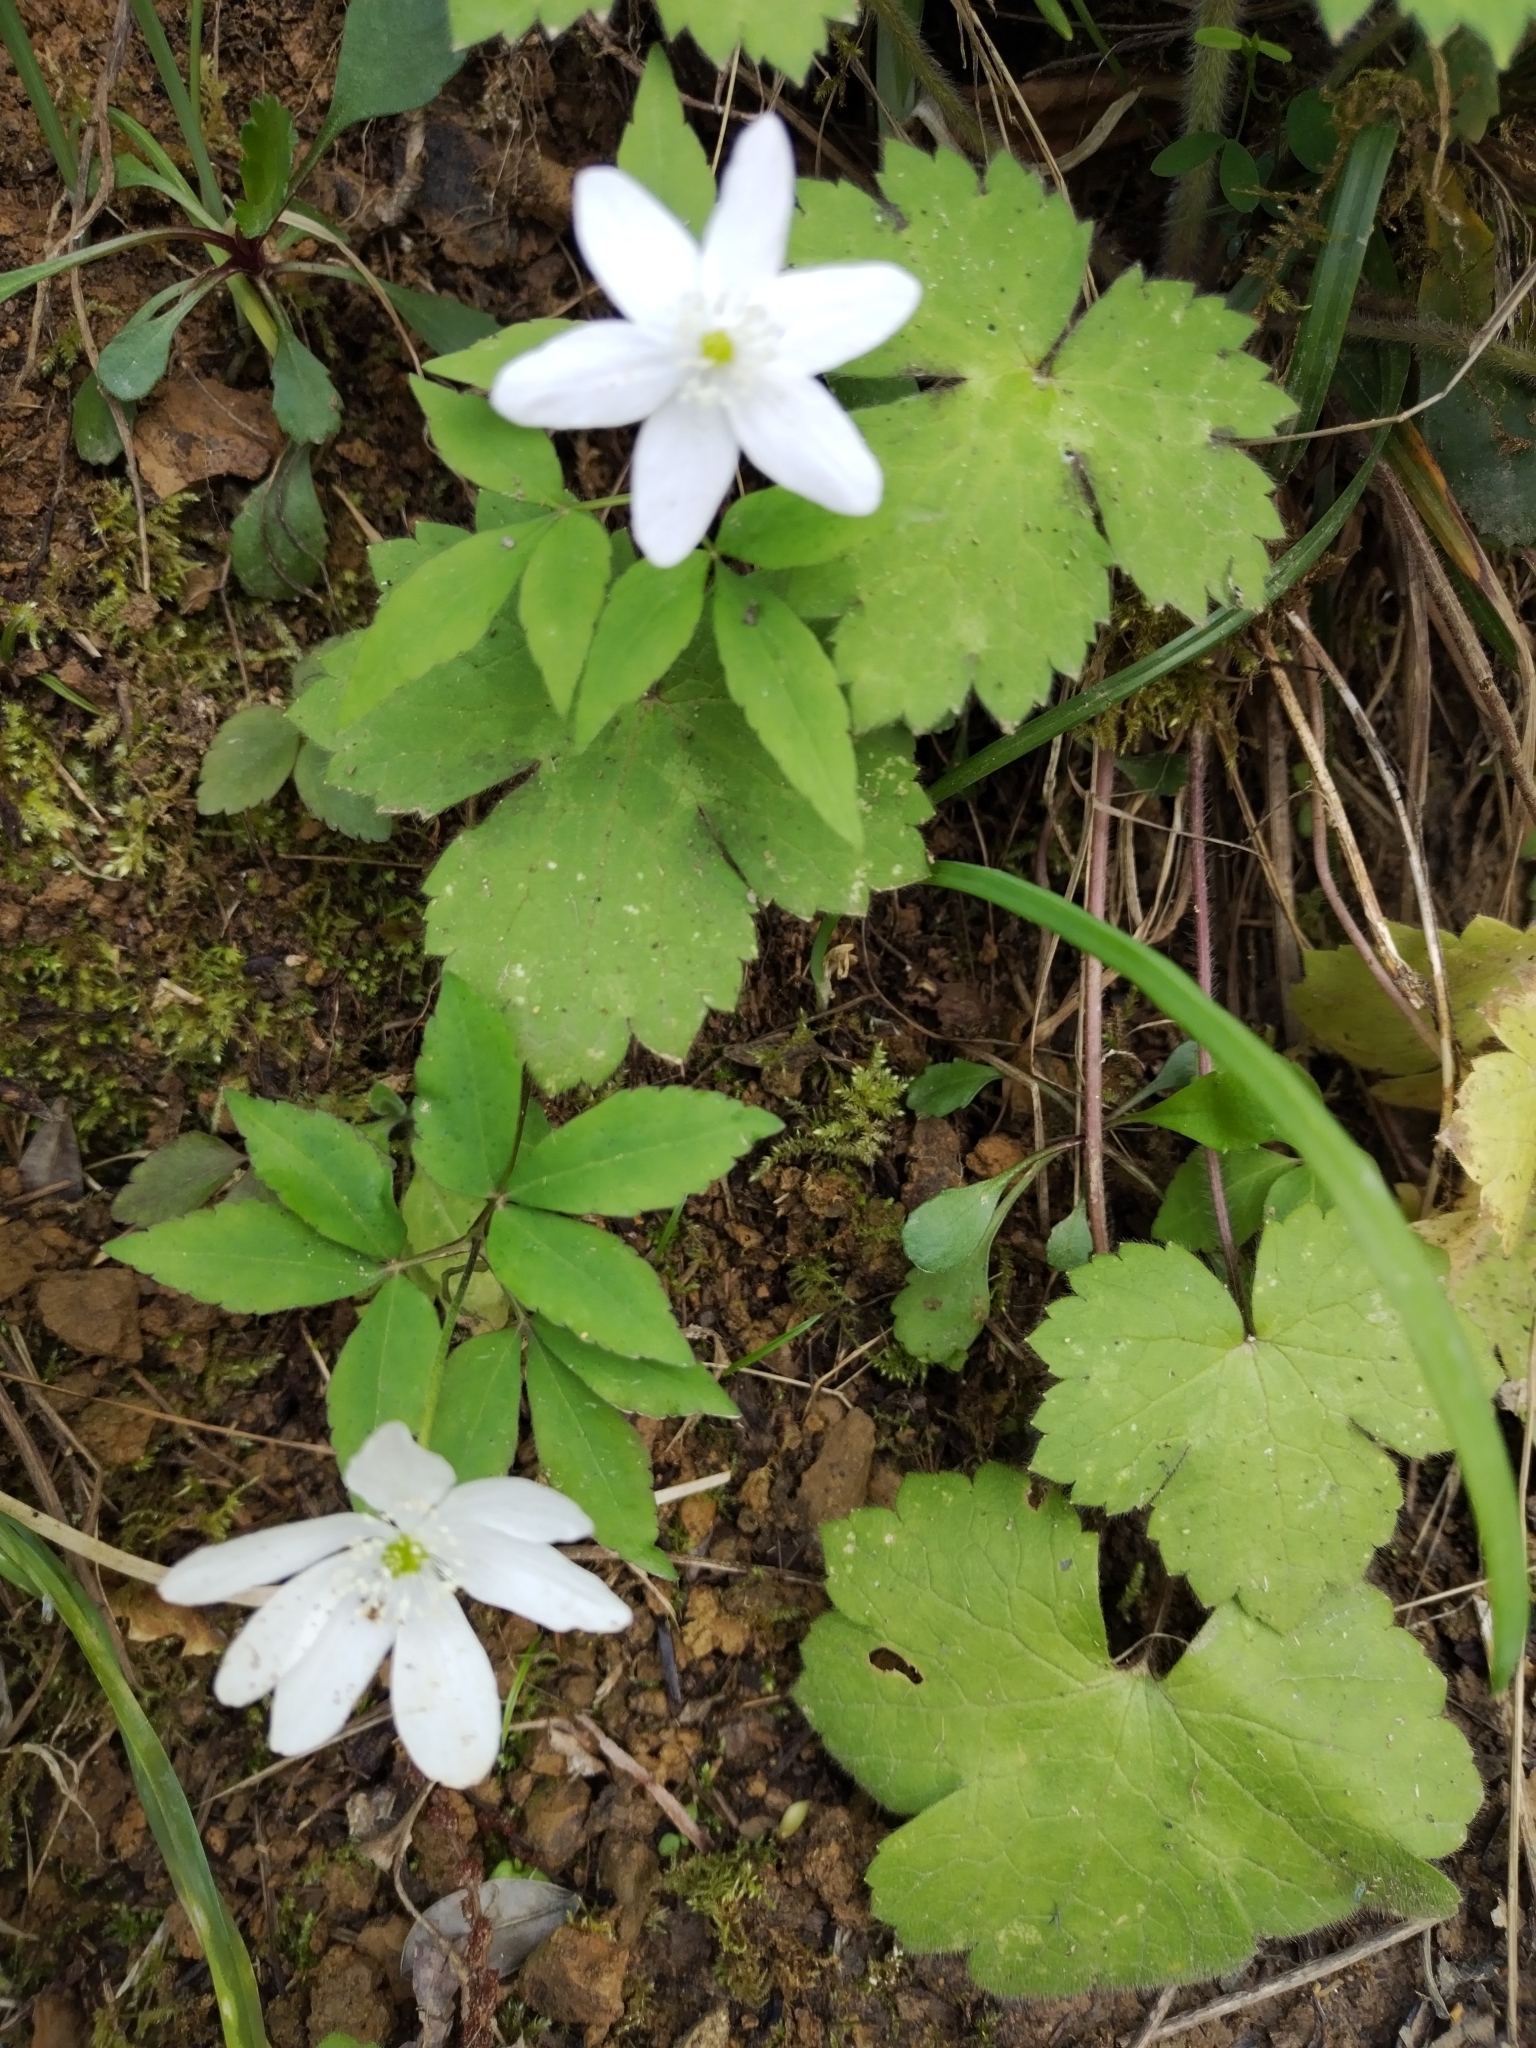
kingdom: Plantae
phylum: Tracheophyta
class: Magnoliopsida
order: Ranunculales
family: Ranunculaceae
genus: Anemone
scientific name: Anemone trifolia
